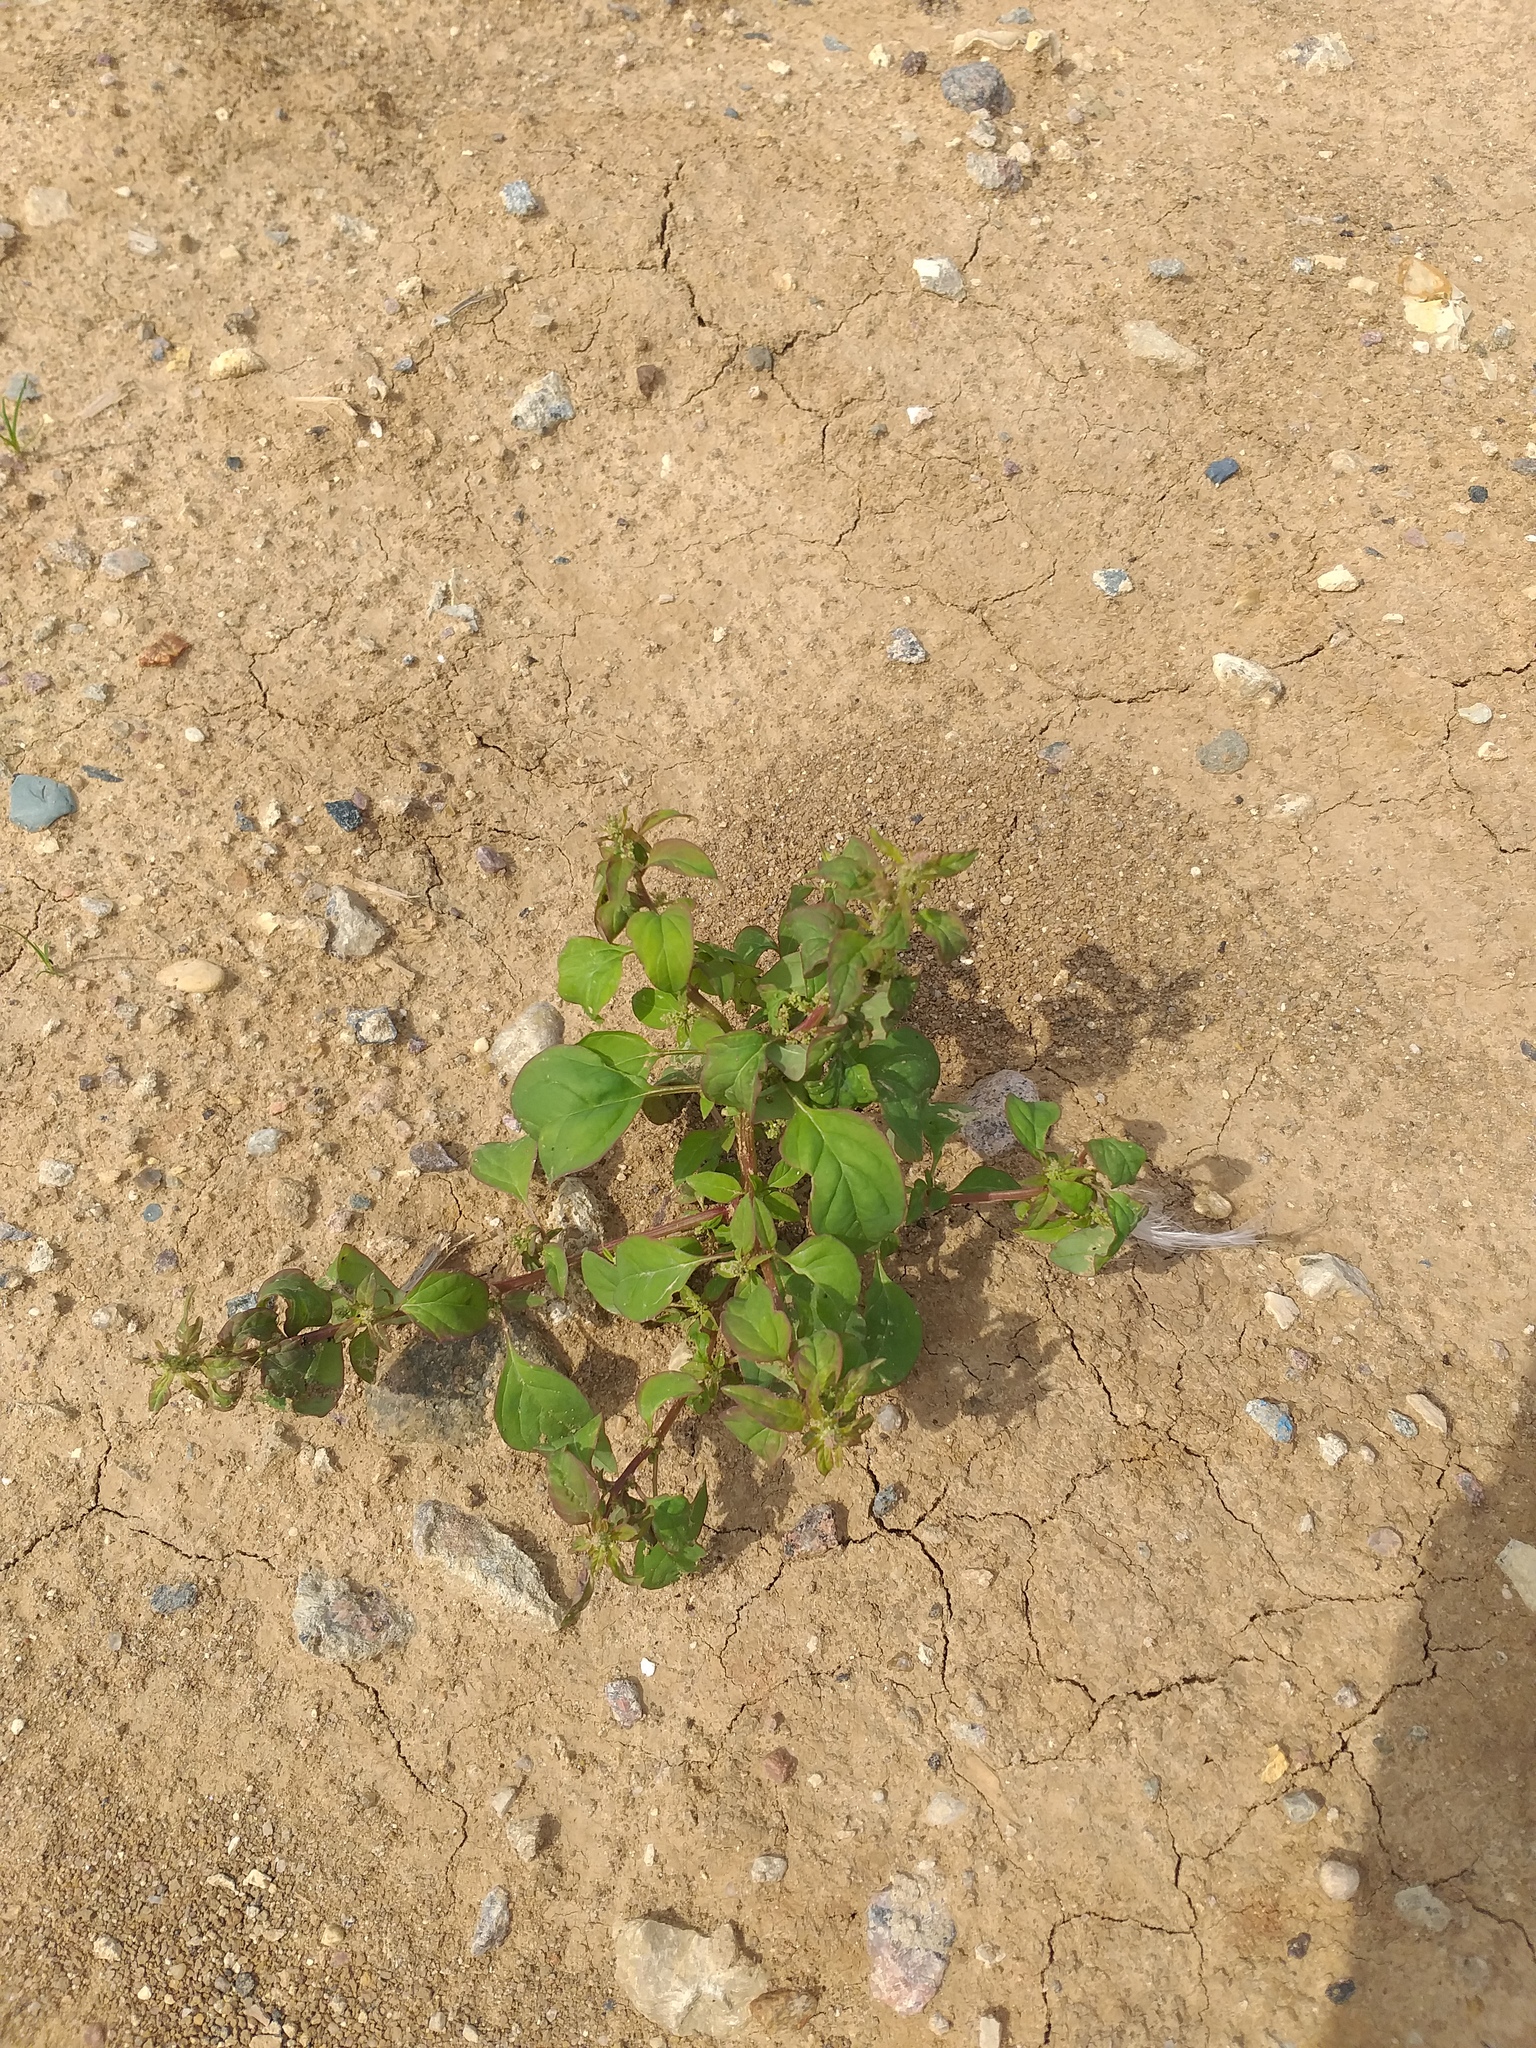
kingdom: Plantae
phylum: Tracheophyta
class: Magnoliopsida
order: Caryophyllales
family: Amaranthaceae
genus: Lipandra
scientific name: Lipandra polysperma
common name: Many-seed goosefoot
